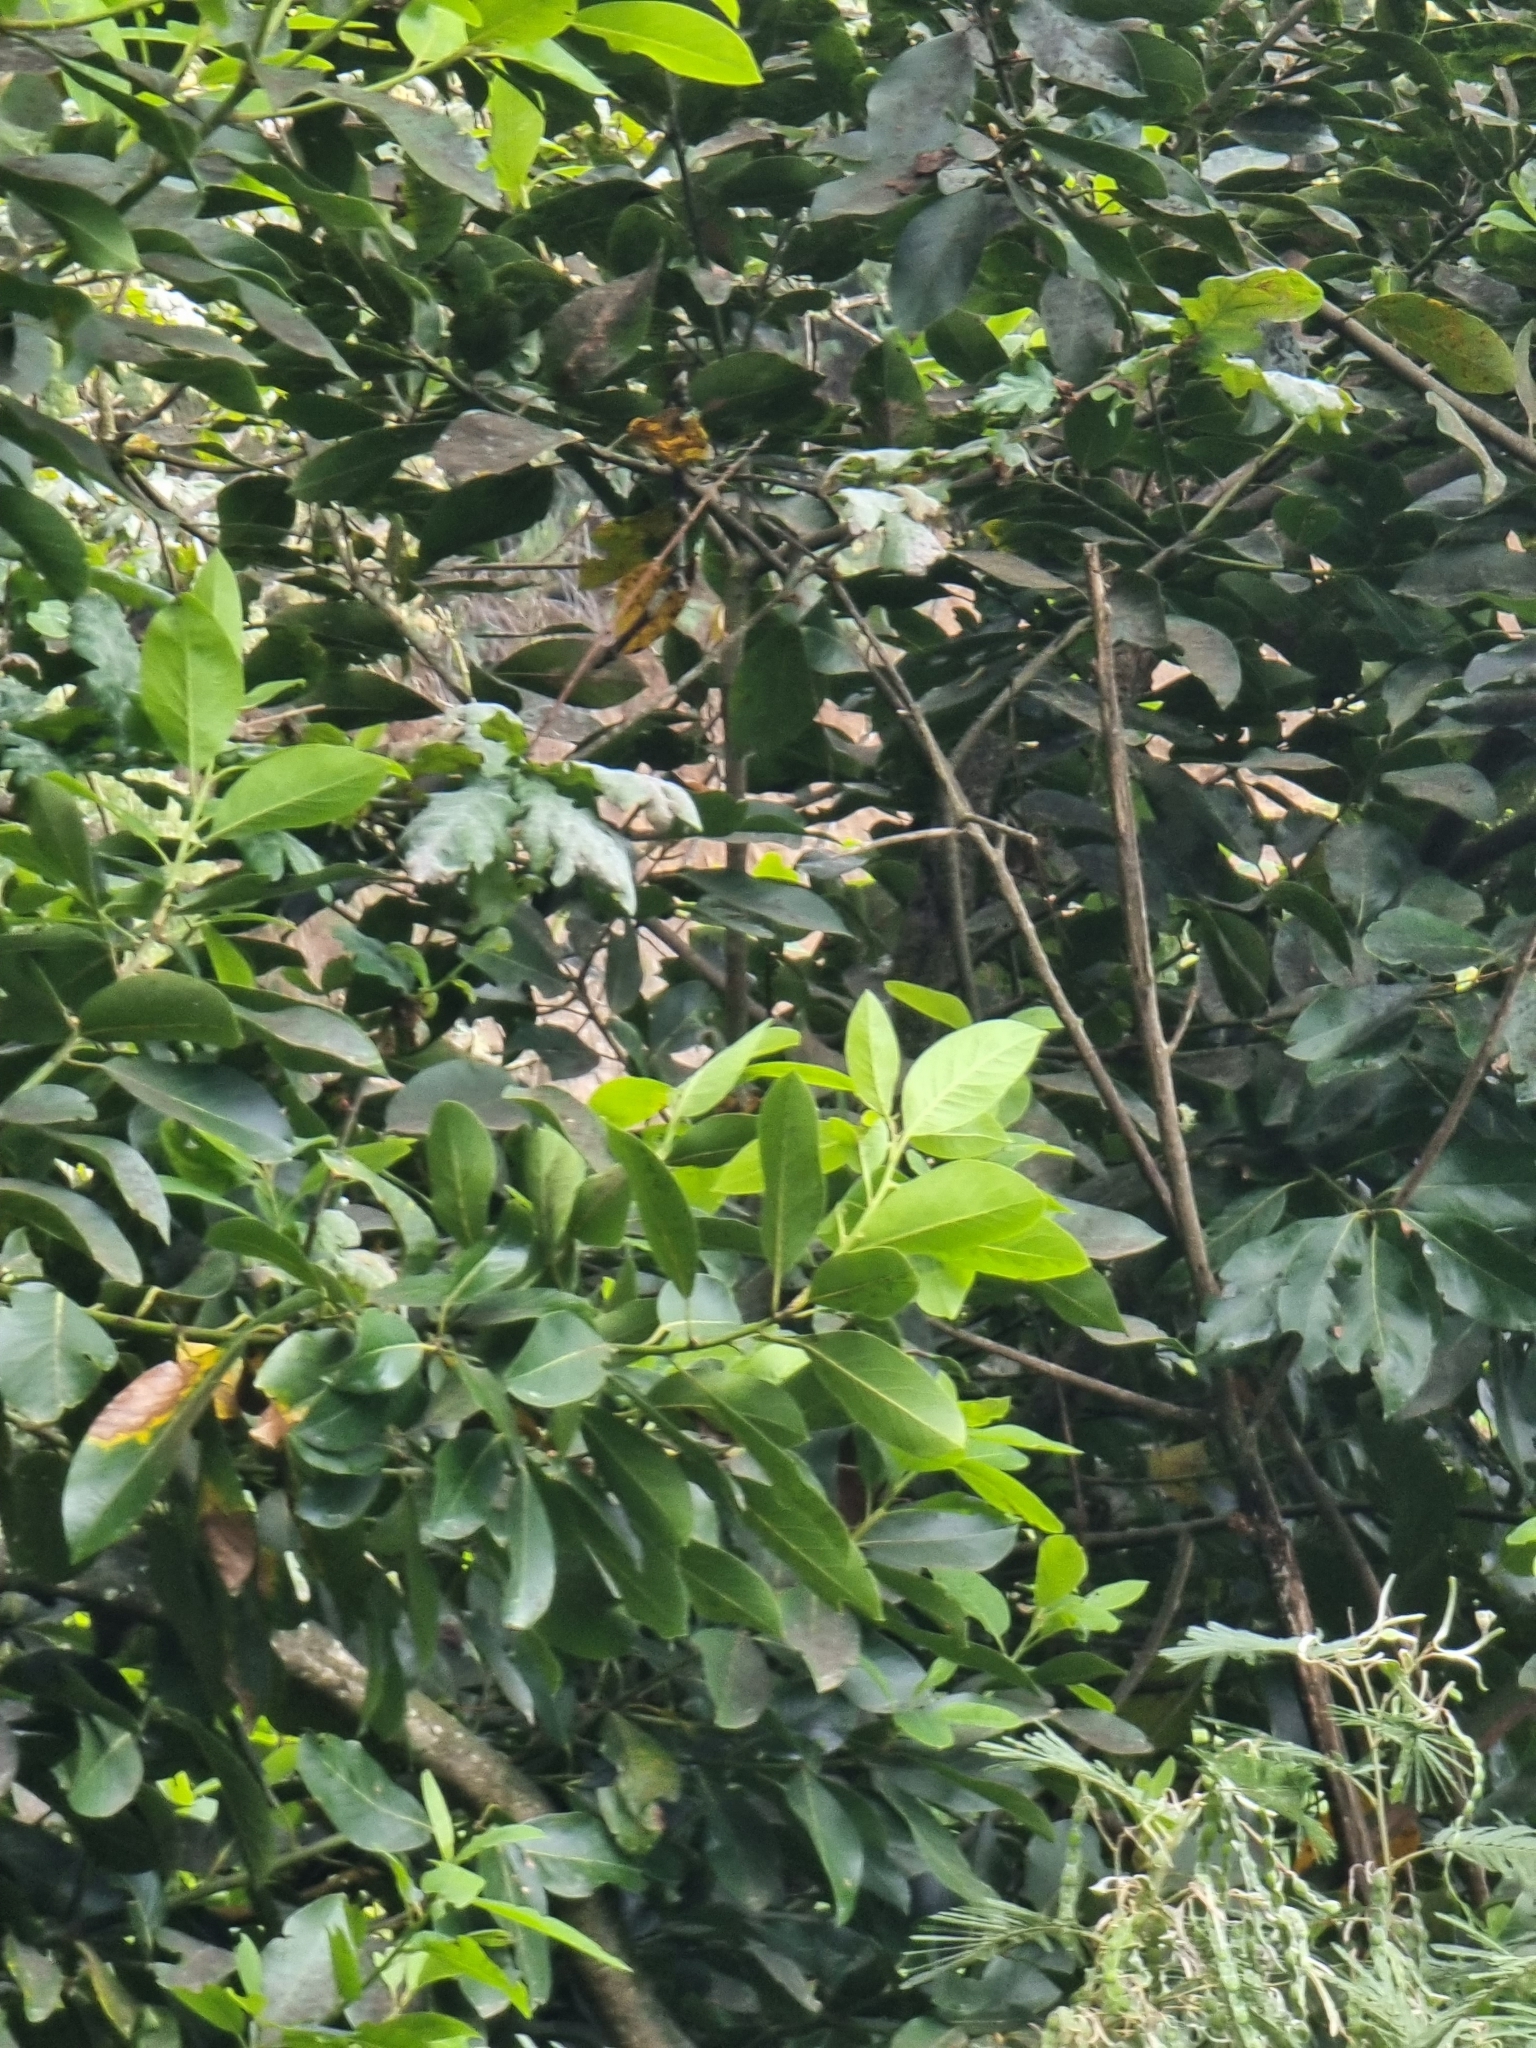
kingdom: Plantae
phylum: Tracheophyta
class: Magnoliopsida
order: Laurales
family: Lauraceae
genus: Laurus
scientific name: Laurus novocanariensis
